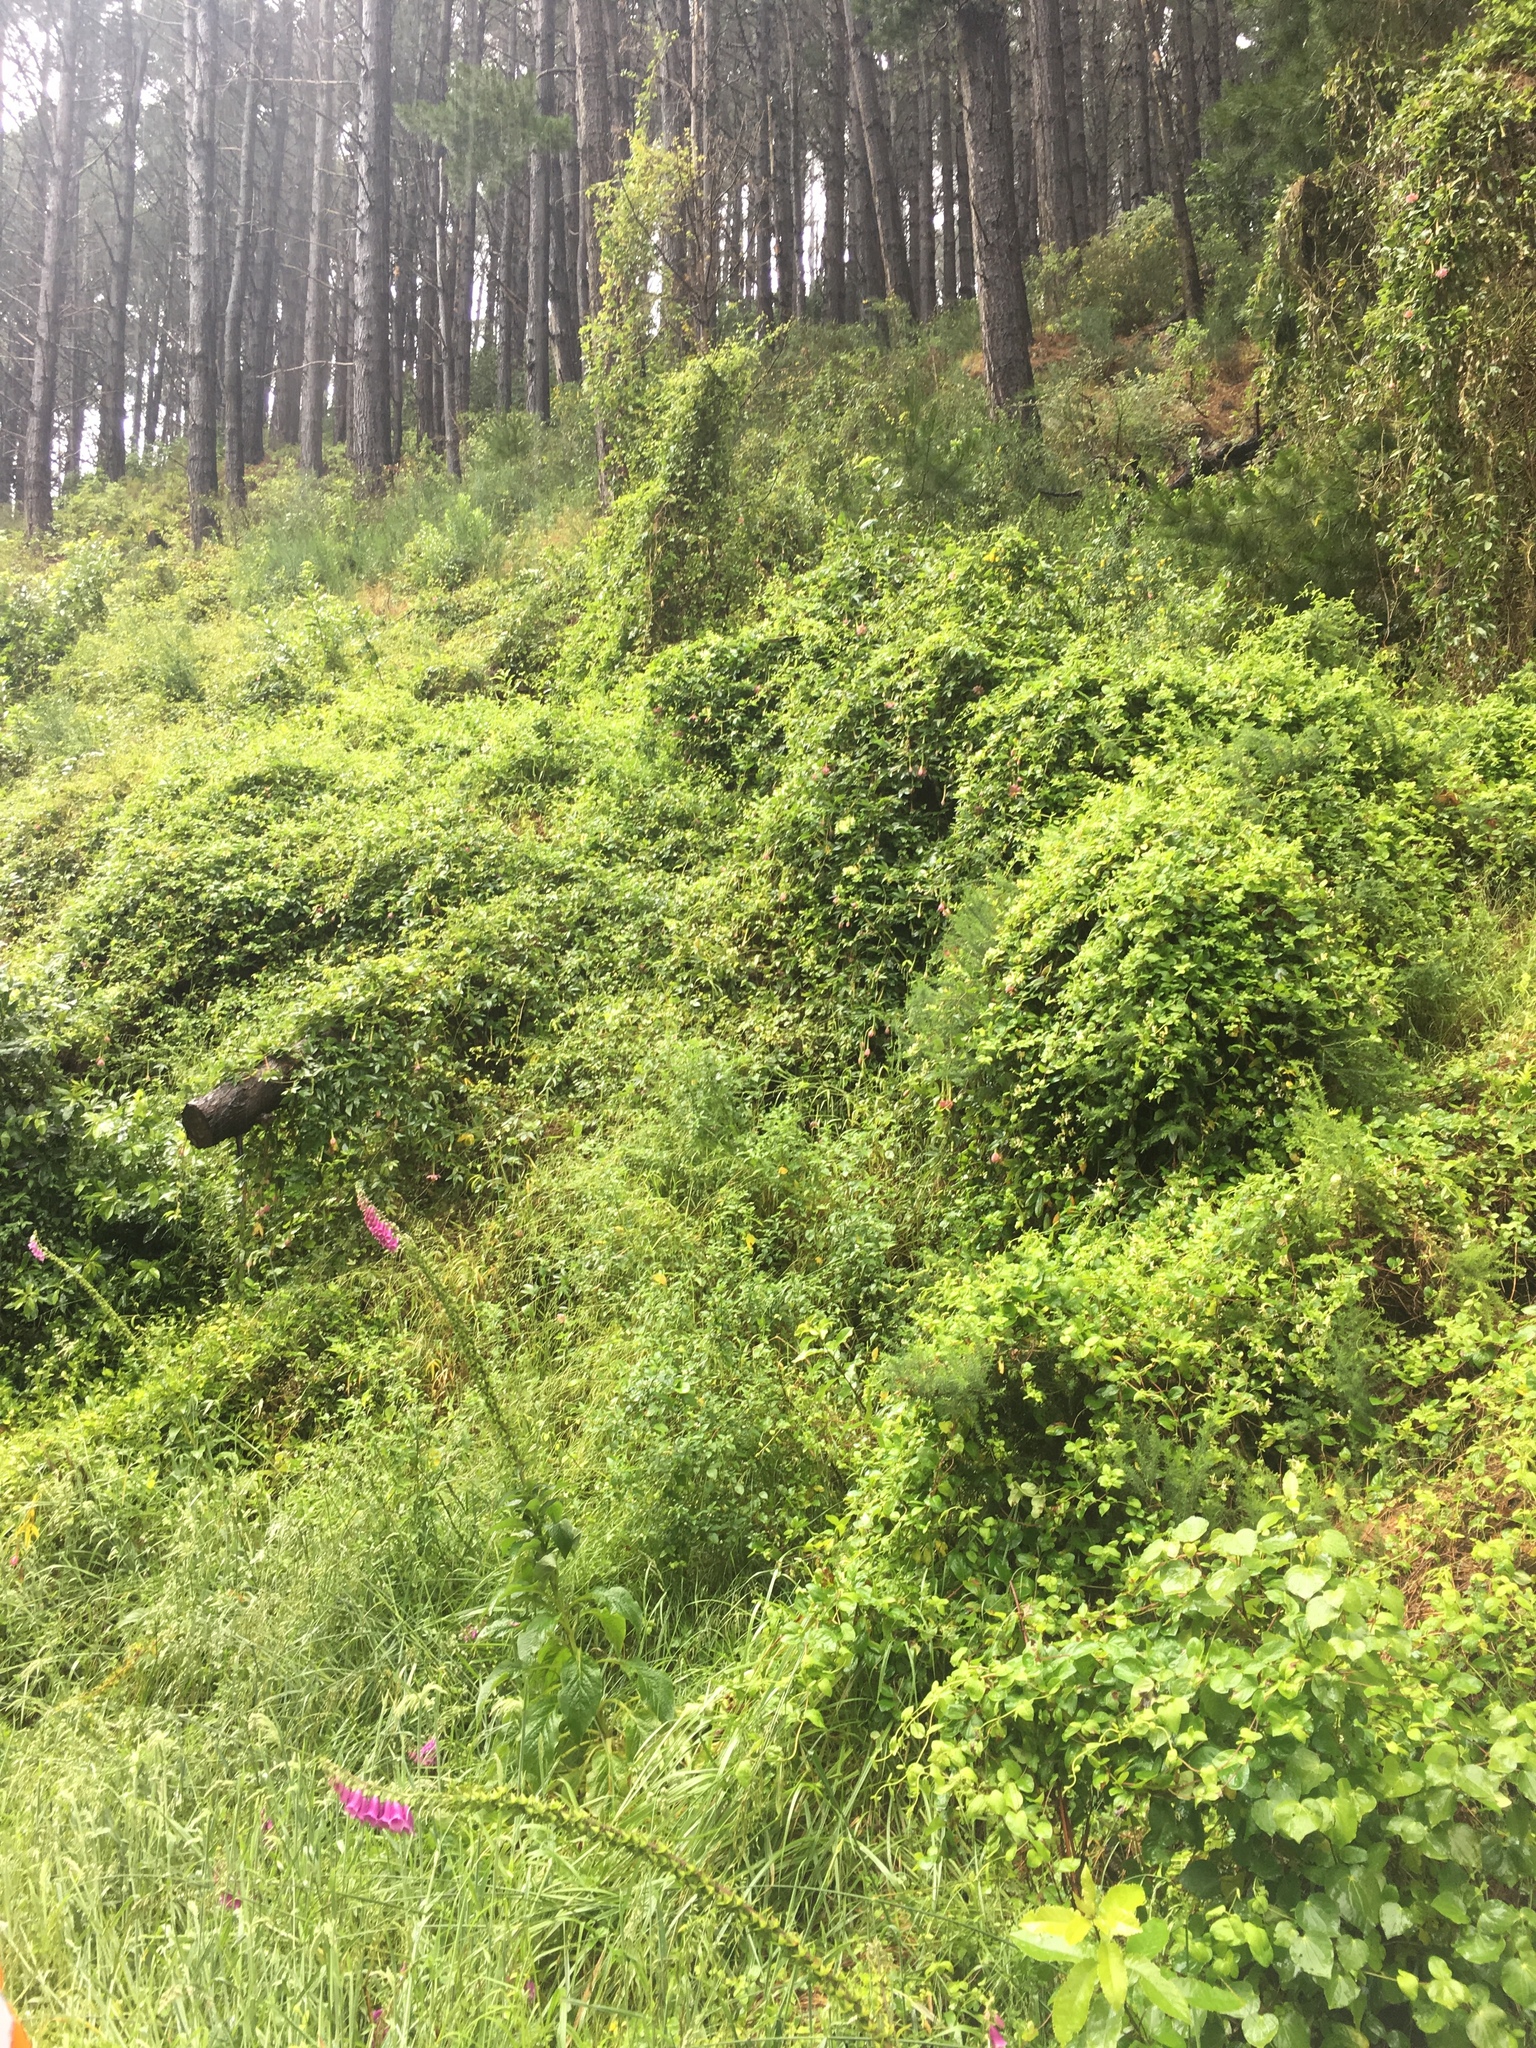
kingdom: Plantae
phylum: Tracheophyta
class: Magnoliopsida
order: Dipsacales
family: Caprifoliaceae
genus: Lonicera
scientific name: Lonicera japonica
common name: Japanese honeysuckle
